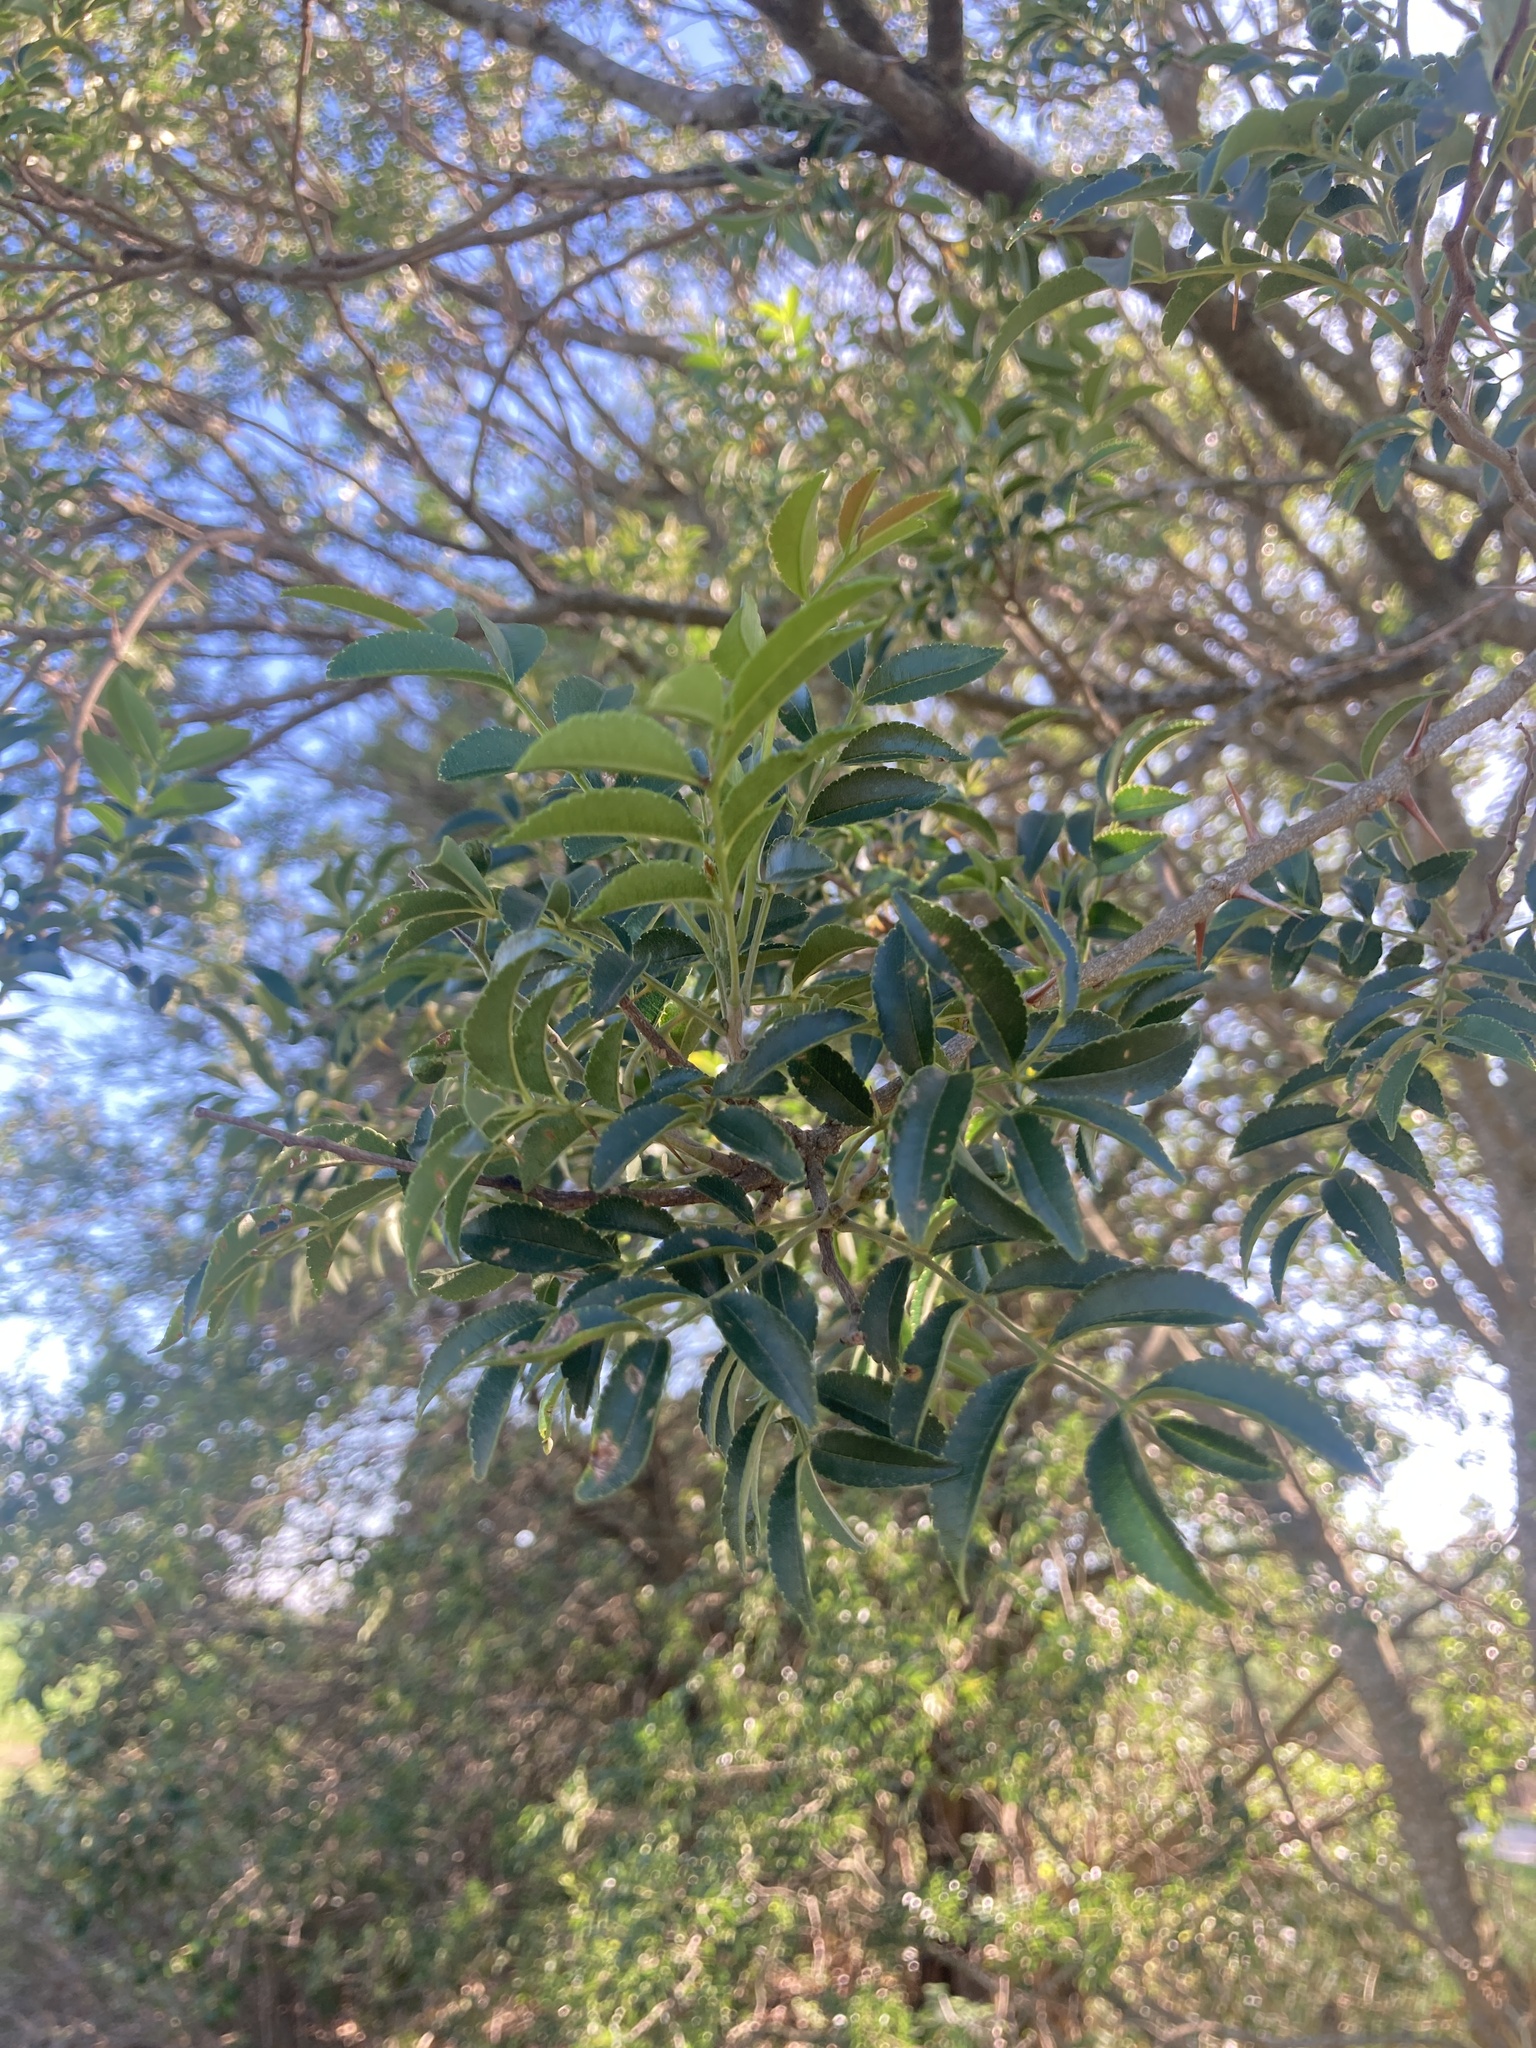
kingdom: Plantae
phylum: Tracheophyta
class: Magnoliopsida
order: Sapindales
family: Rutaceae
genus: Zanthoxylum
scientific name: Zanthoxylum rhoifolium
